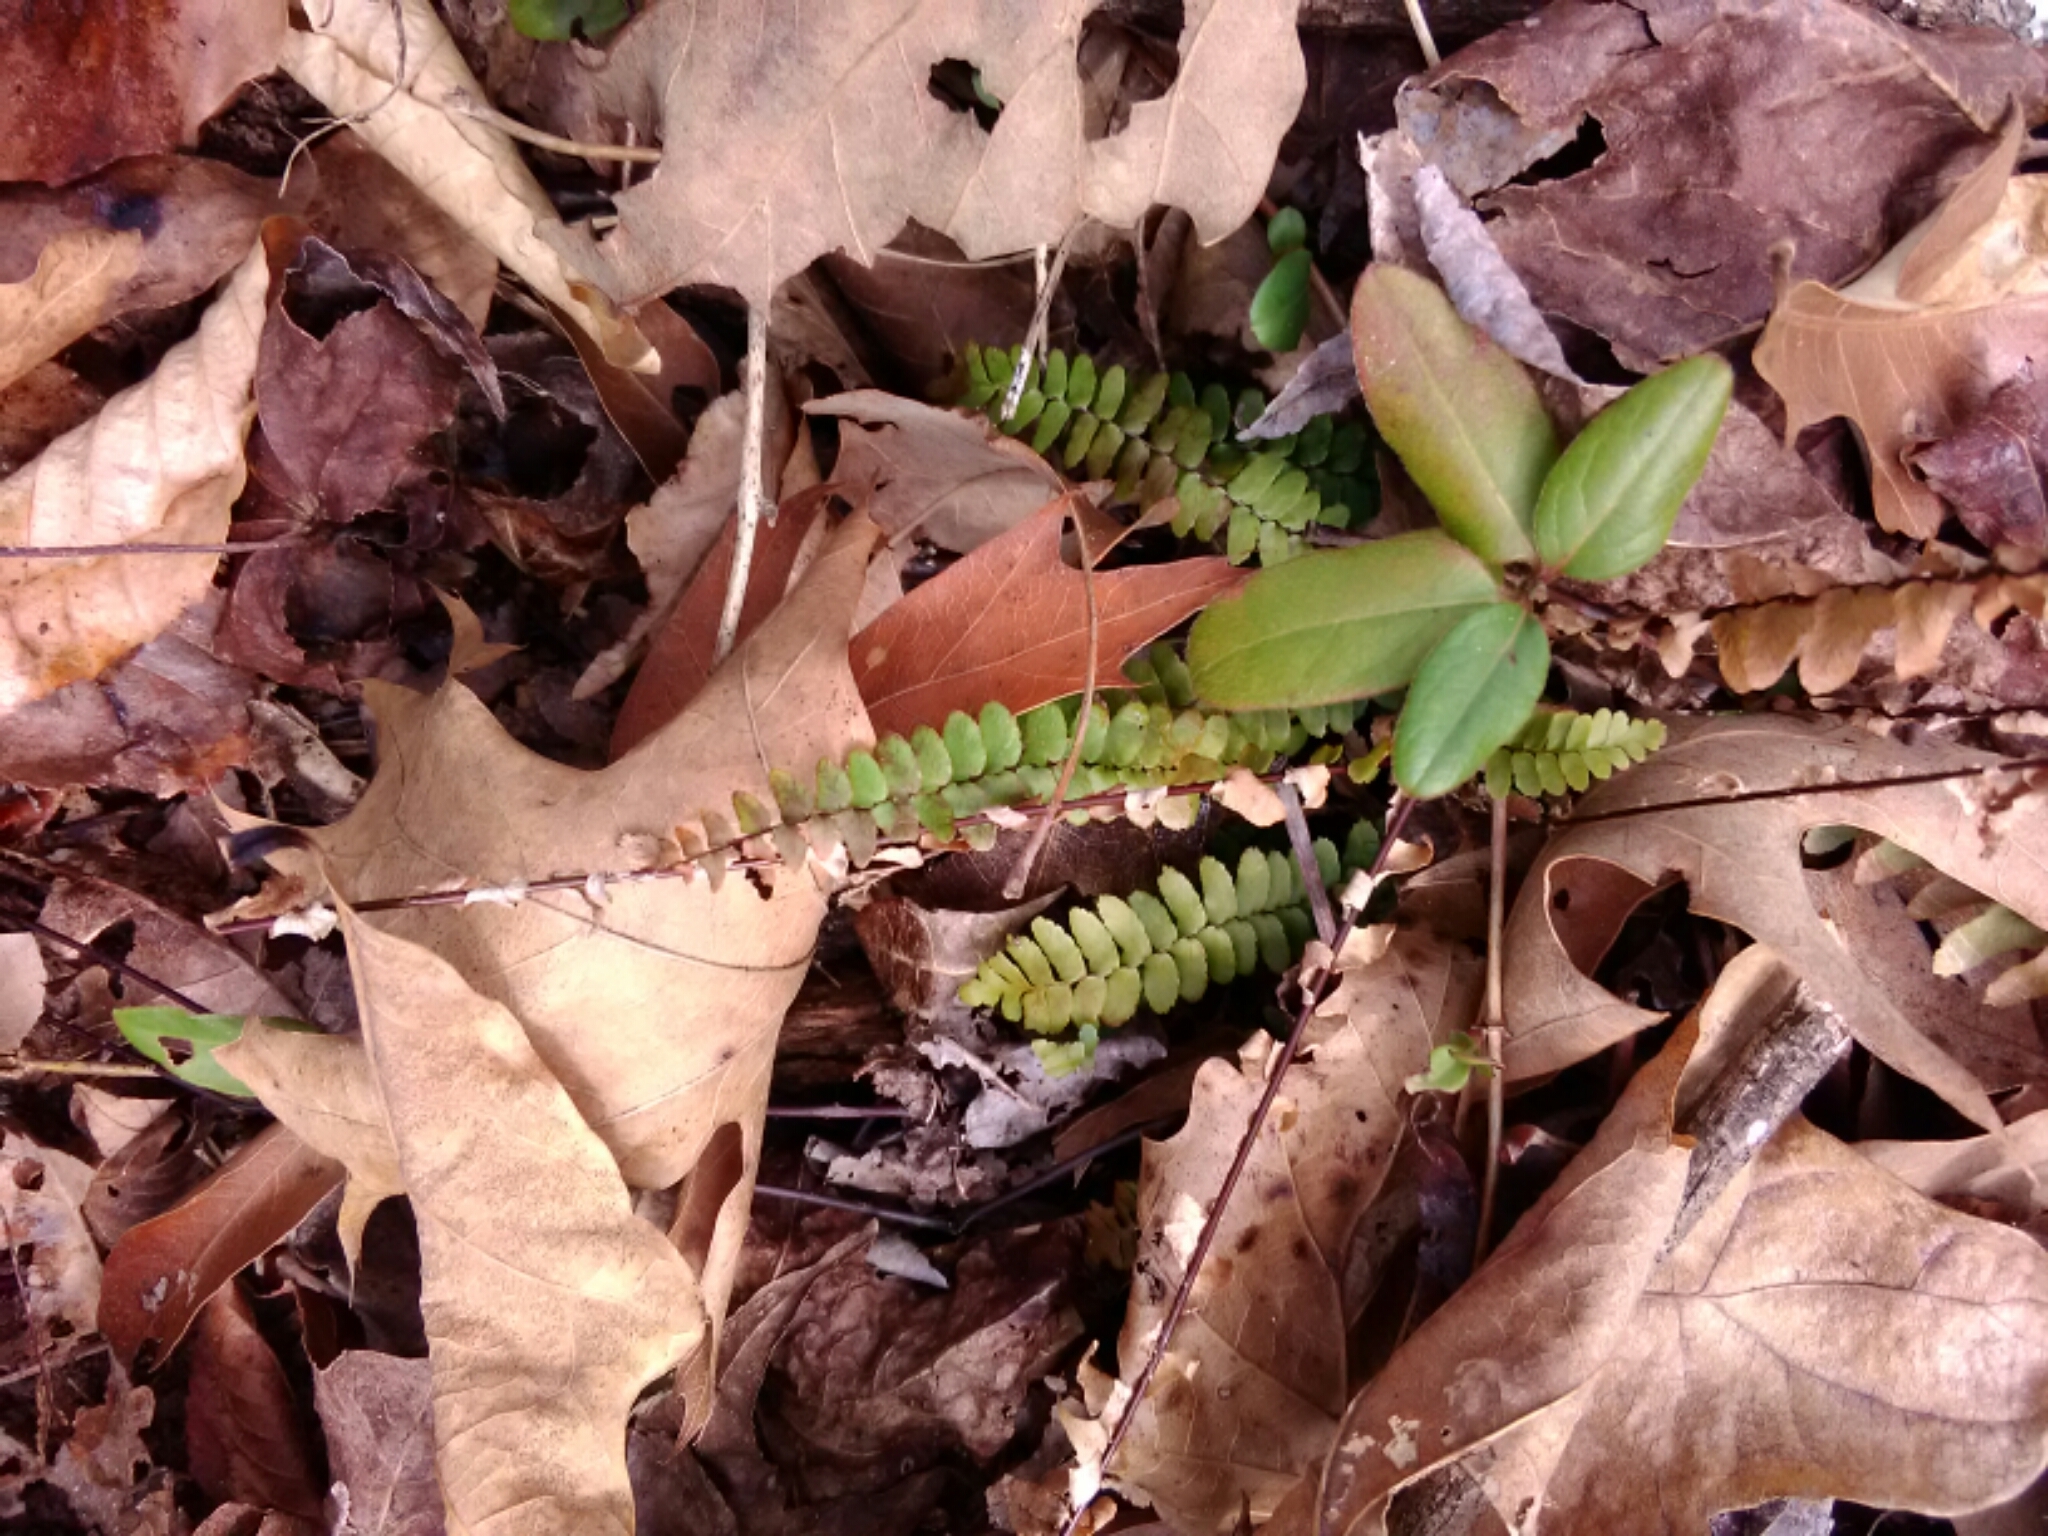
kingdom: Plantae
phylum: Tracheophyta
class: Polypodiopsida
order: Polypodiales
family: Aspleniaceae
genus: Asplenium
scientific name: Asplenium platyneuron
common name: Ebony spleenwort
